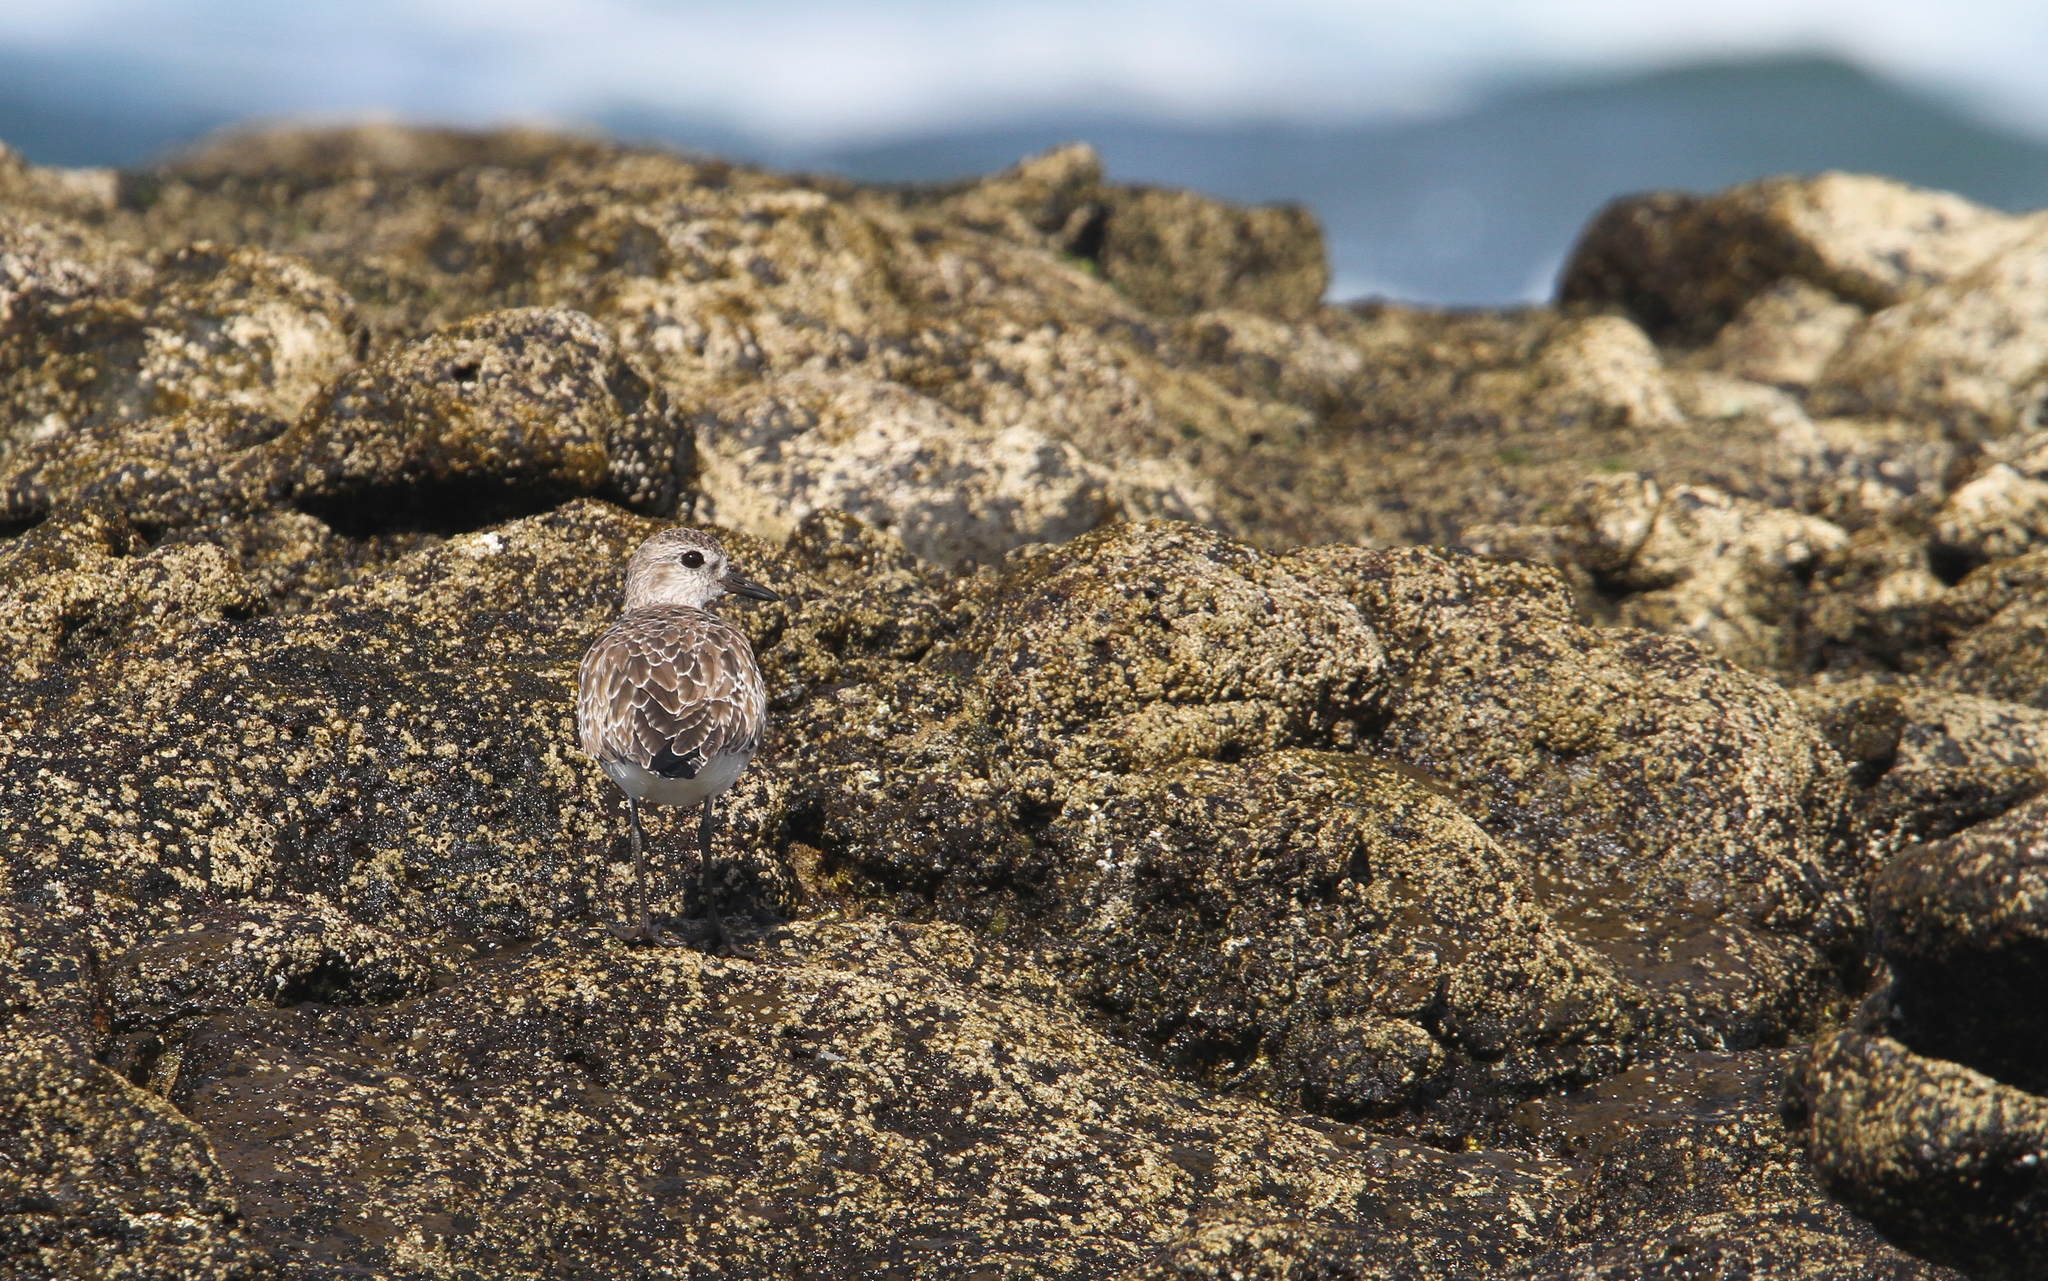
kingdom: Animalia
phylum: Chordata
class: Aves
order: Charadriiformes
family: Charadriidae
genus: Pluvialis
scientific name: Pluvialis squatarola
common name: Grey plover
